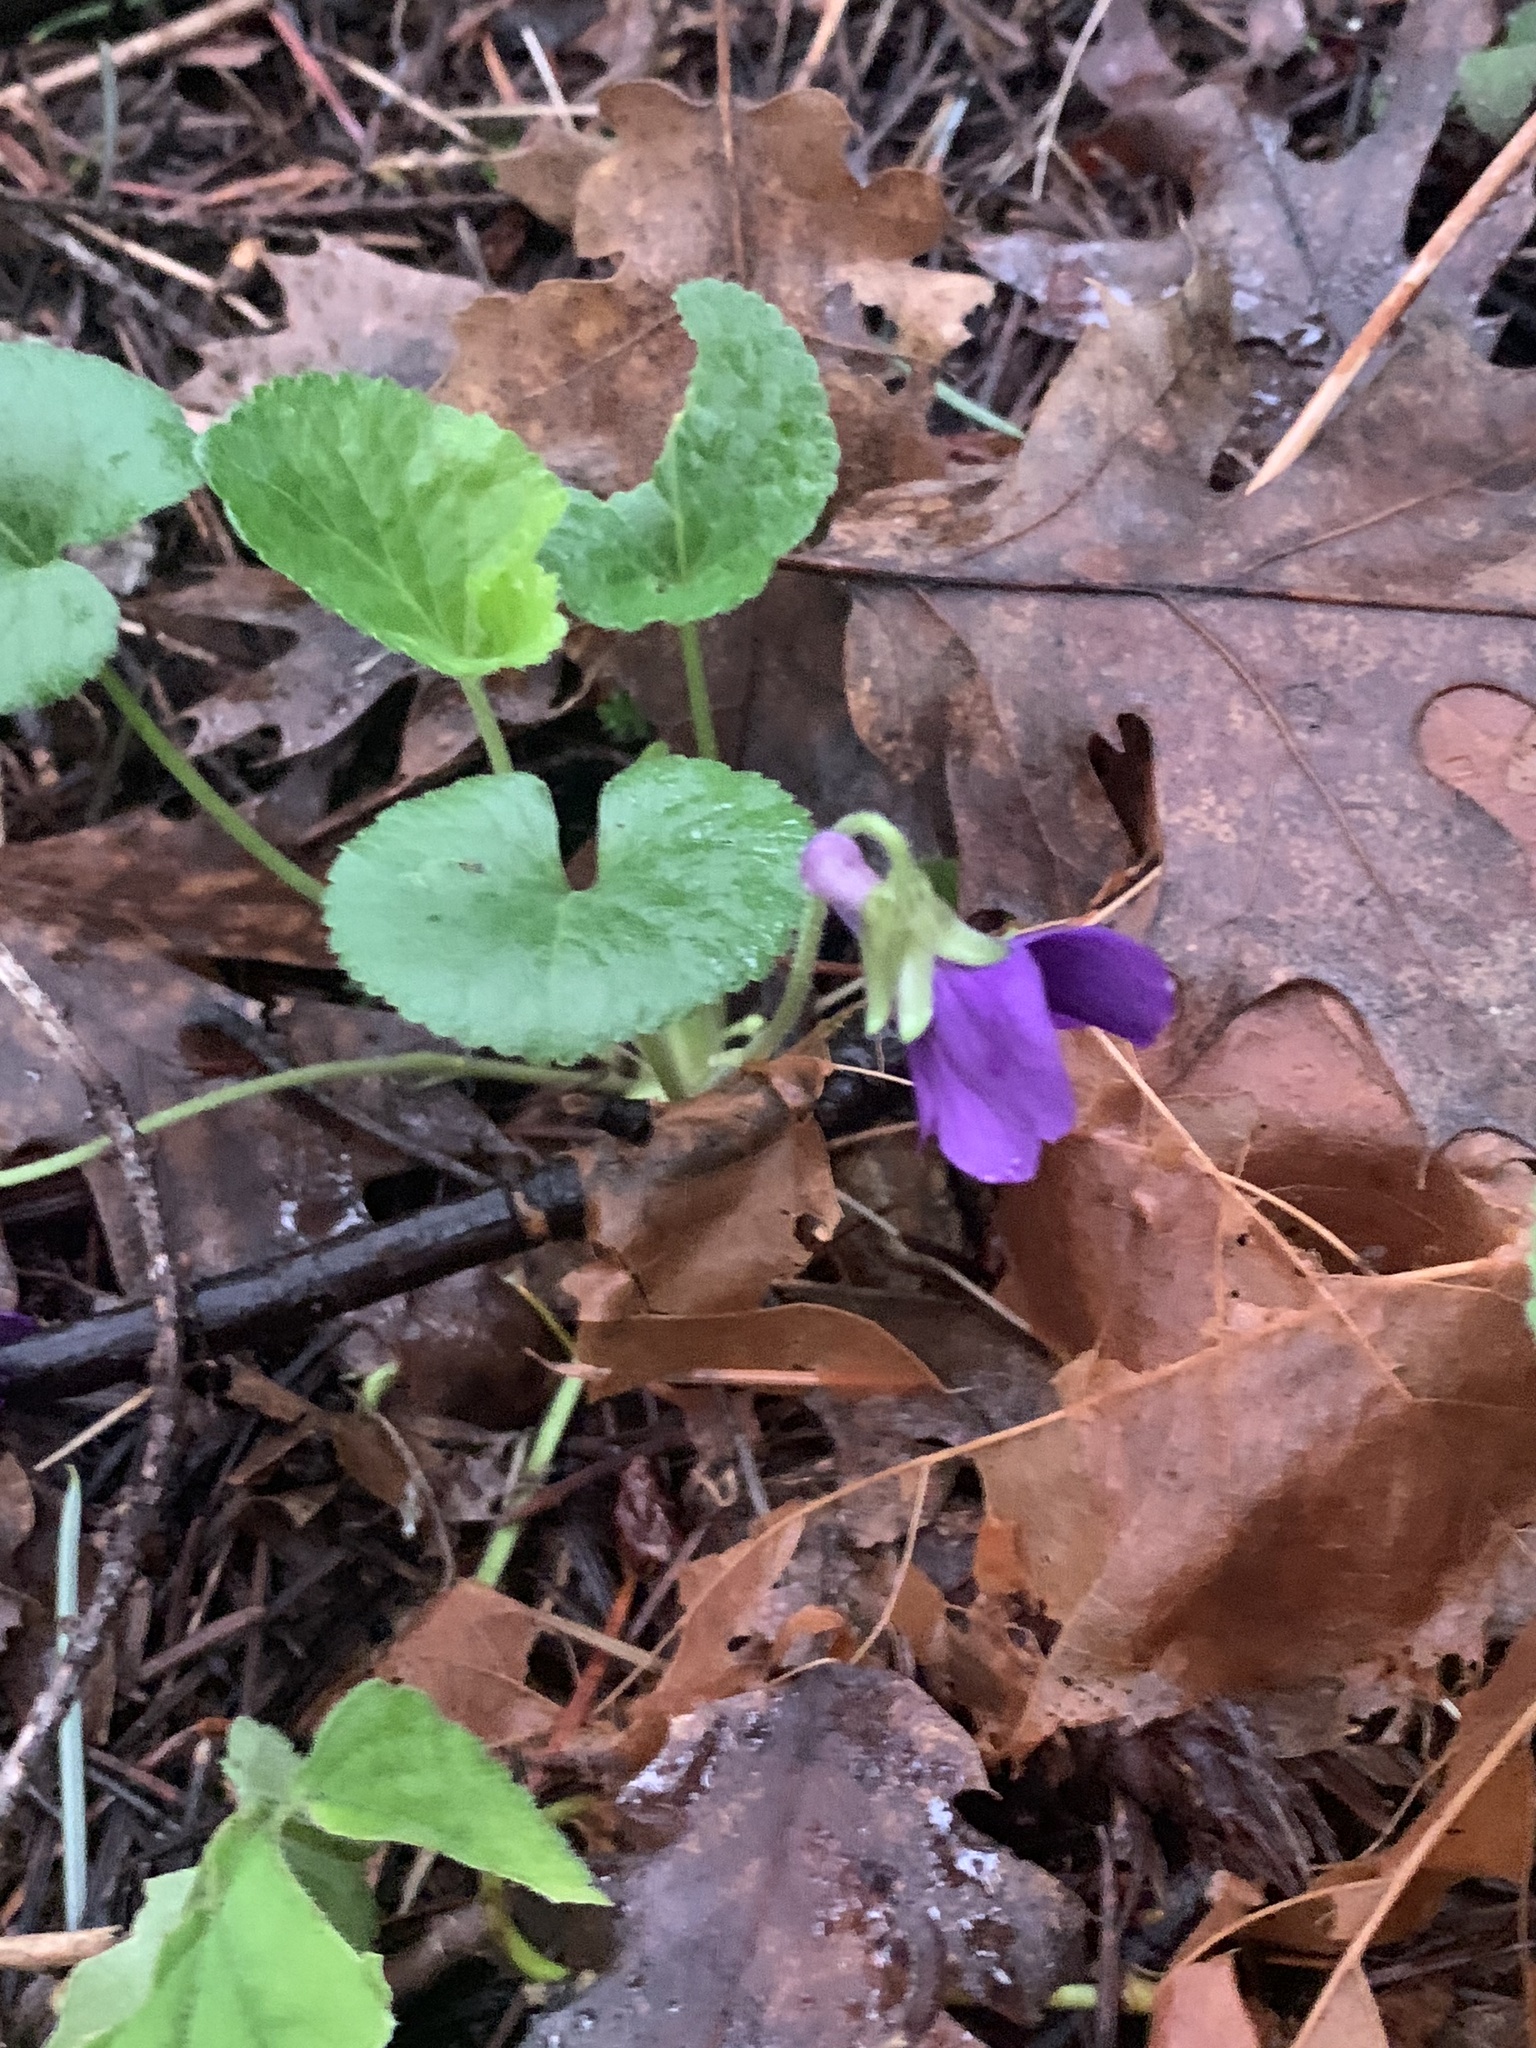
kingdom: Plantae
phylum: Tracheophyta
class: Magnoliopsida
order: Malpighiales
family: Violaceae
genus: Viola
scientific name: Viola odorata
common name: Sweet violet
